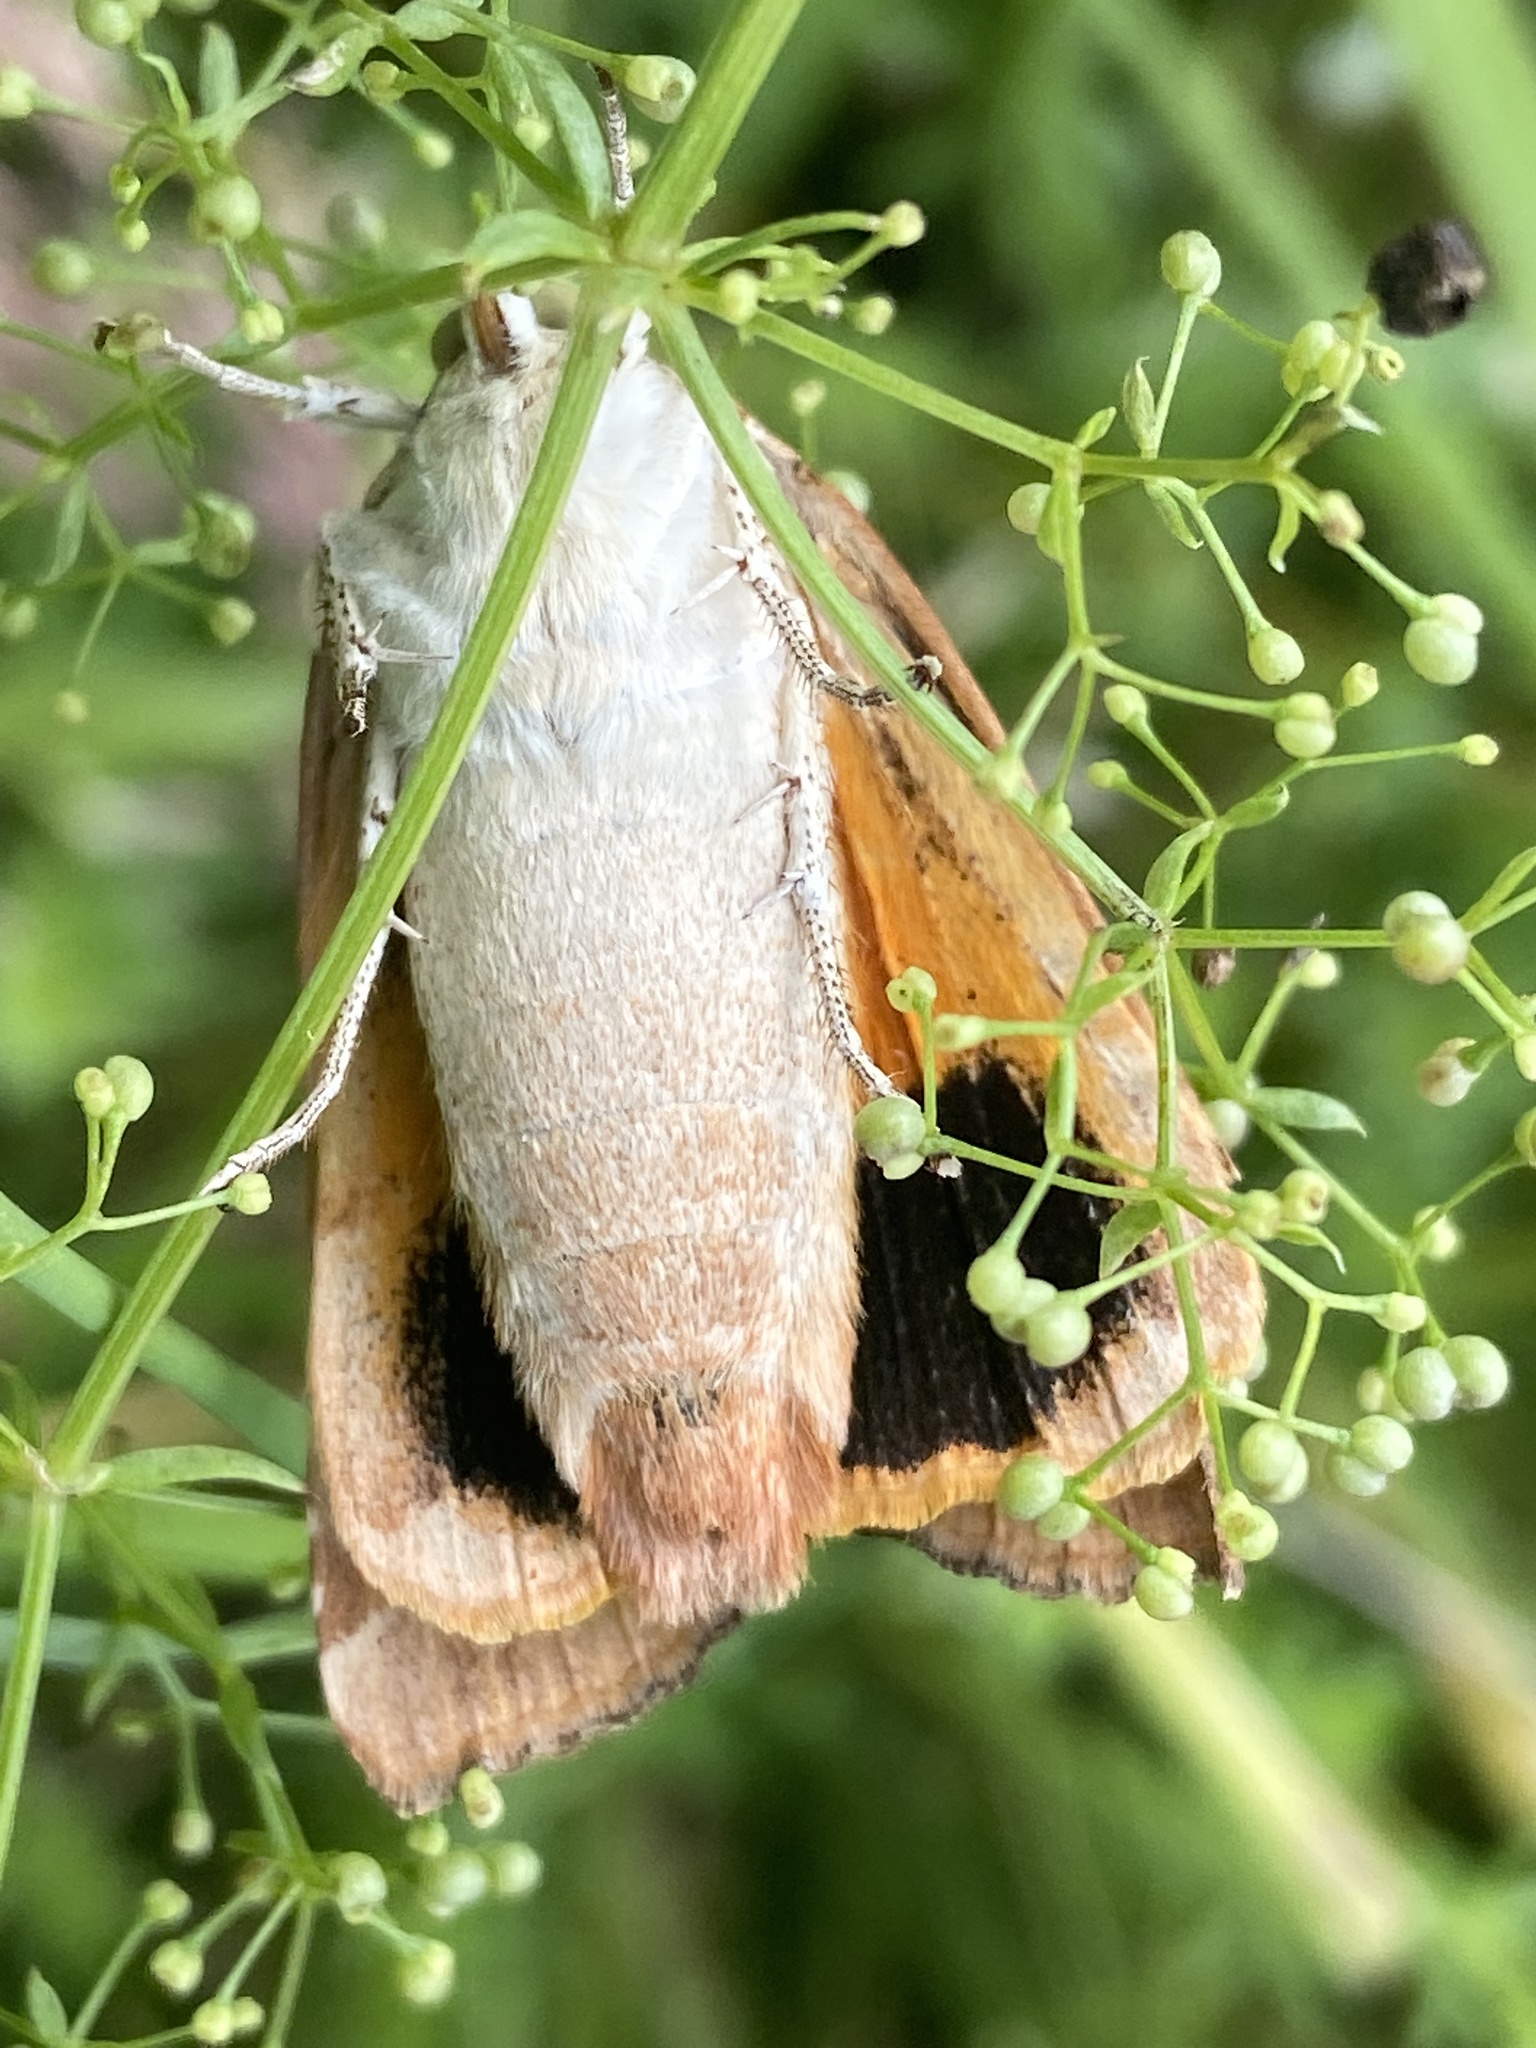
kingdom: Animalia
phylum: Arthropoda
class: Insecta
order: Lepidoptera
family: Noctuidae
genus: Noctua
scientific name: Noctua fimbriata
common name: Broad-bordered yellow underwing
